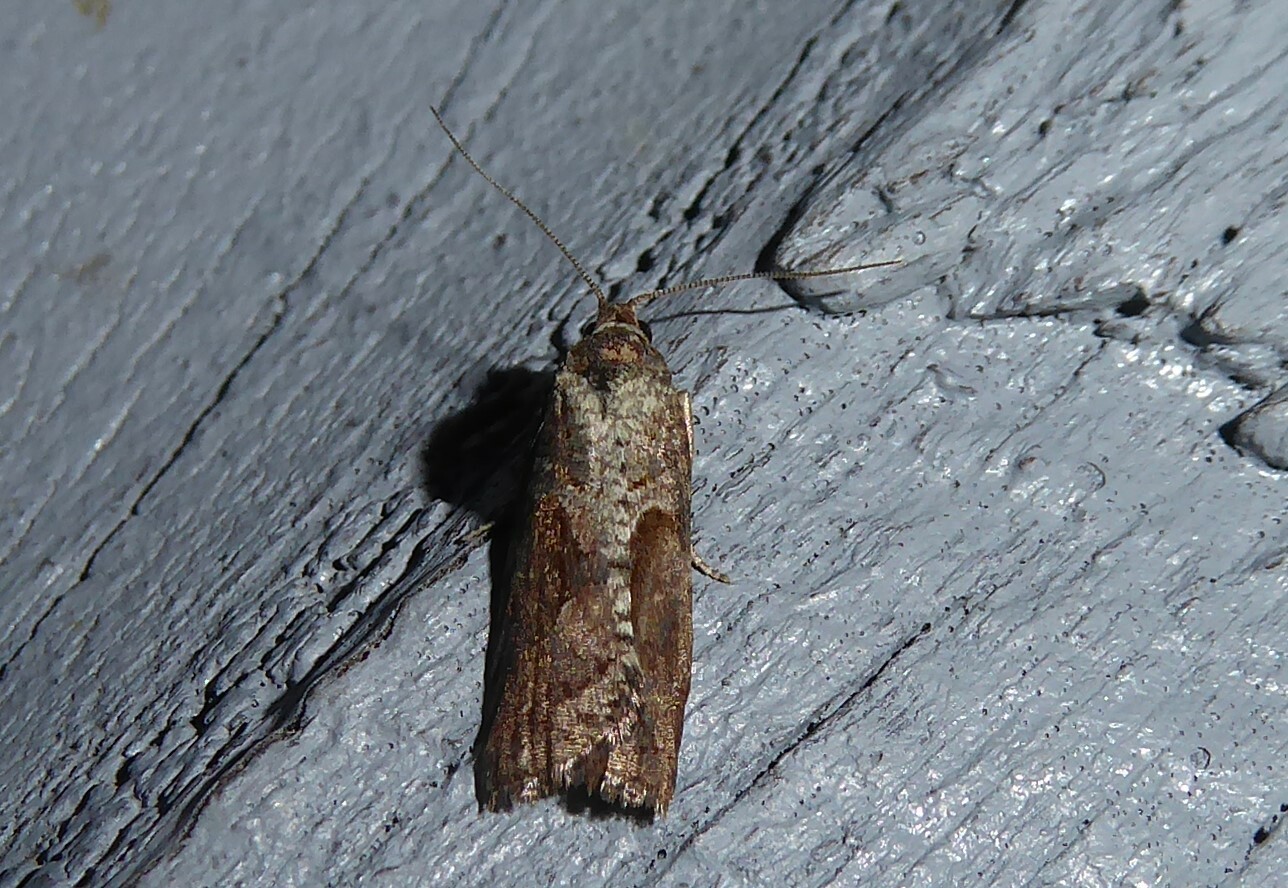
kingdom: Animalia
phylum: Arthropoda
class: Insecta
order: Lepidoptera
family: Tortricidae
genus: Harmologa
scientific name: Harmologa scoliastis
